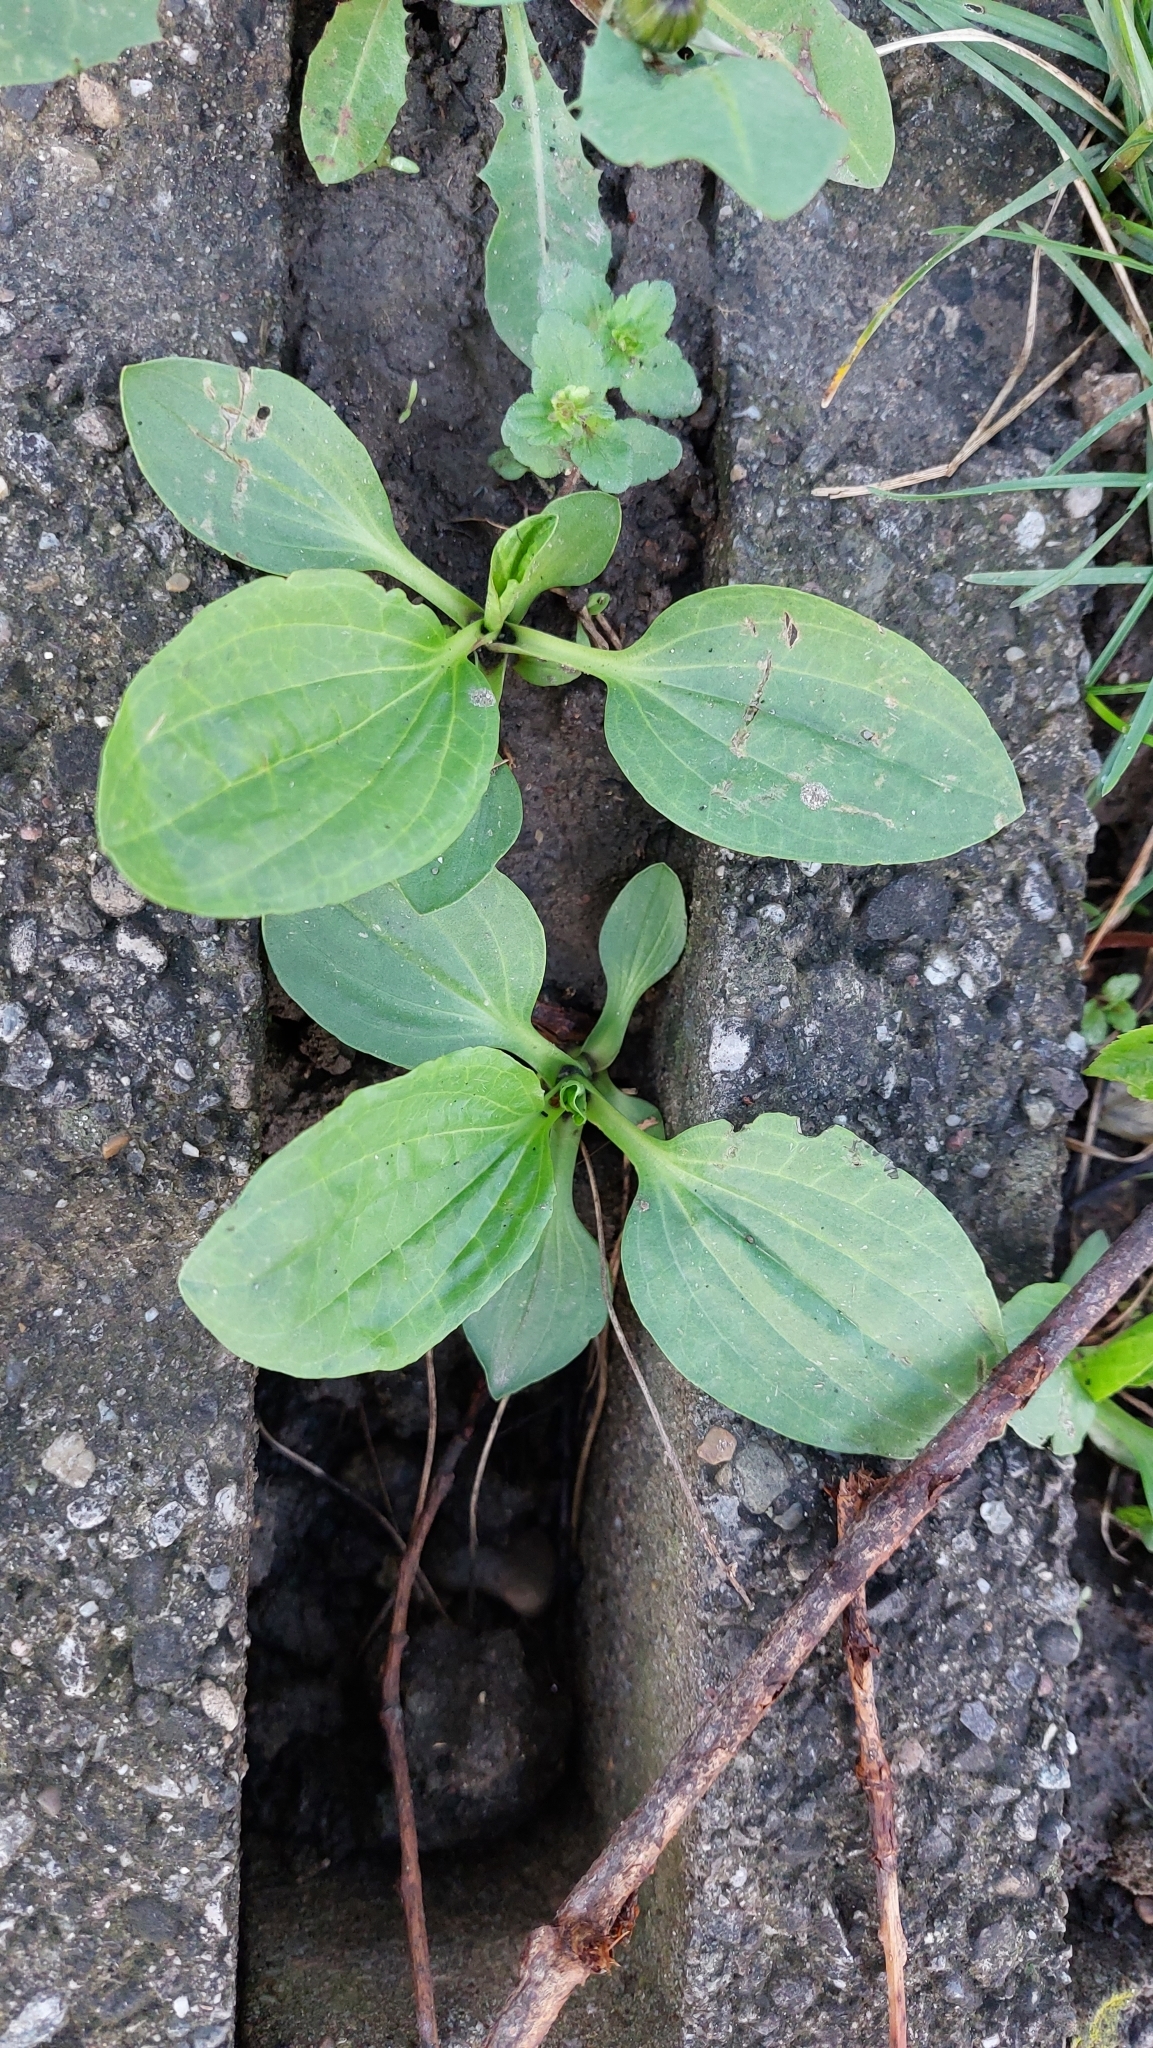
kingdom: Plantae
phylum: Tracheophyta
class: Magnoliopsida
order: Lamiales
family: Plantaginaceae
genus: Plantago
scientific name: Plantago major
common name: Common plantain
